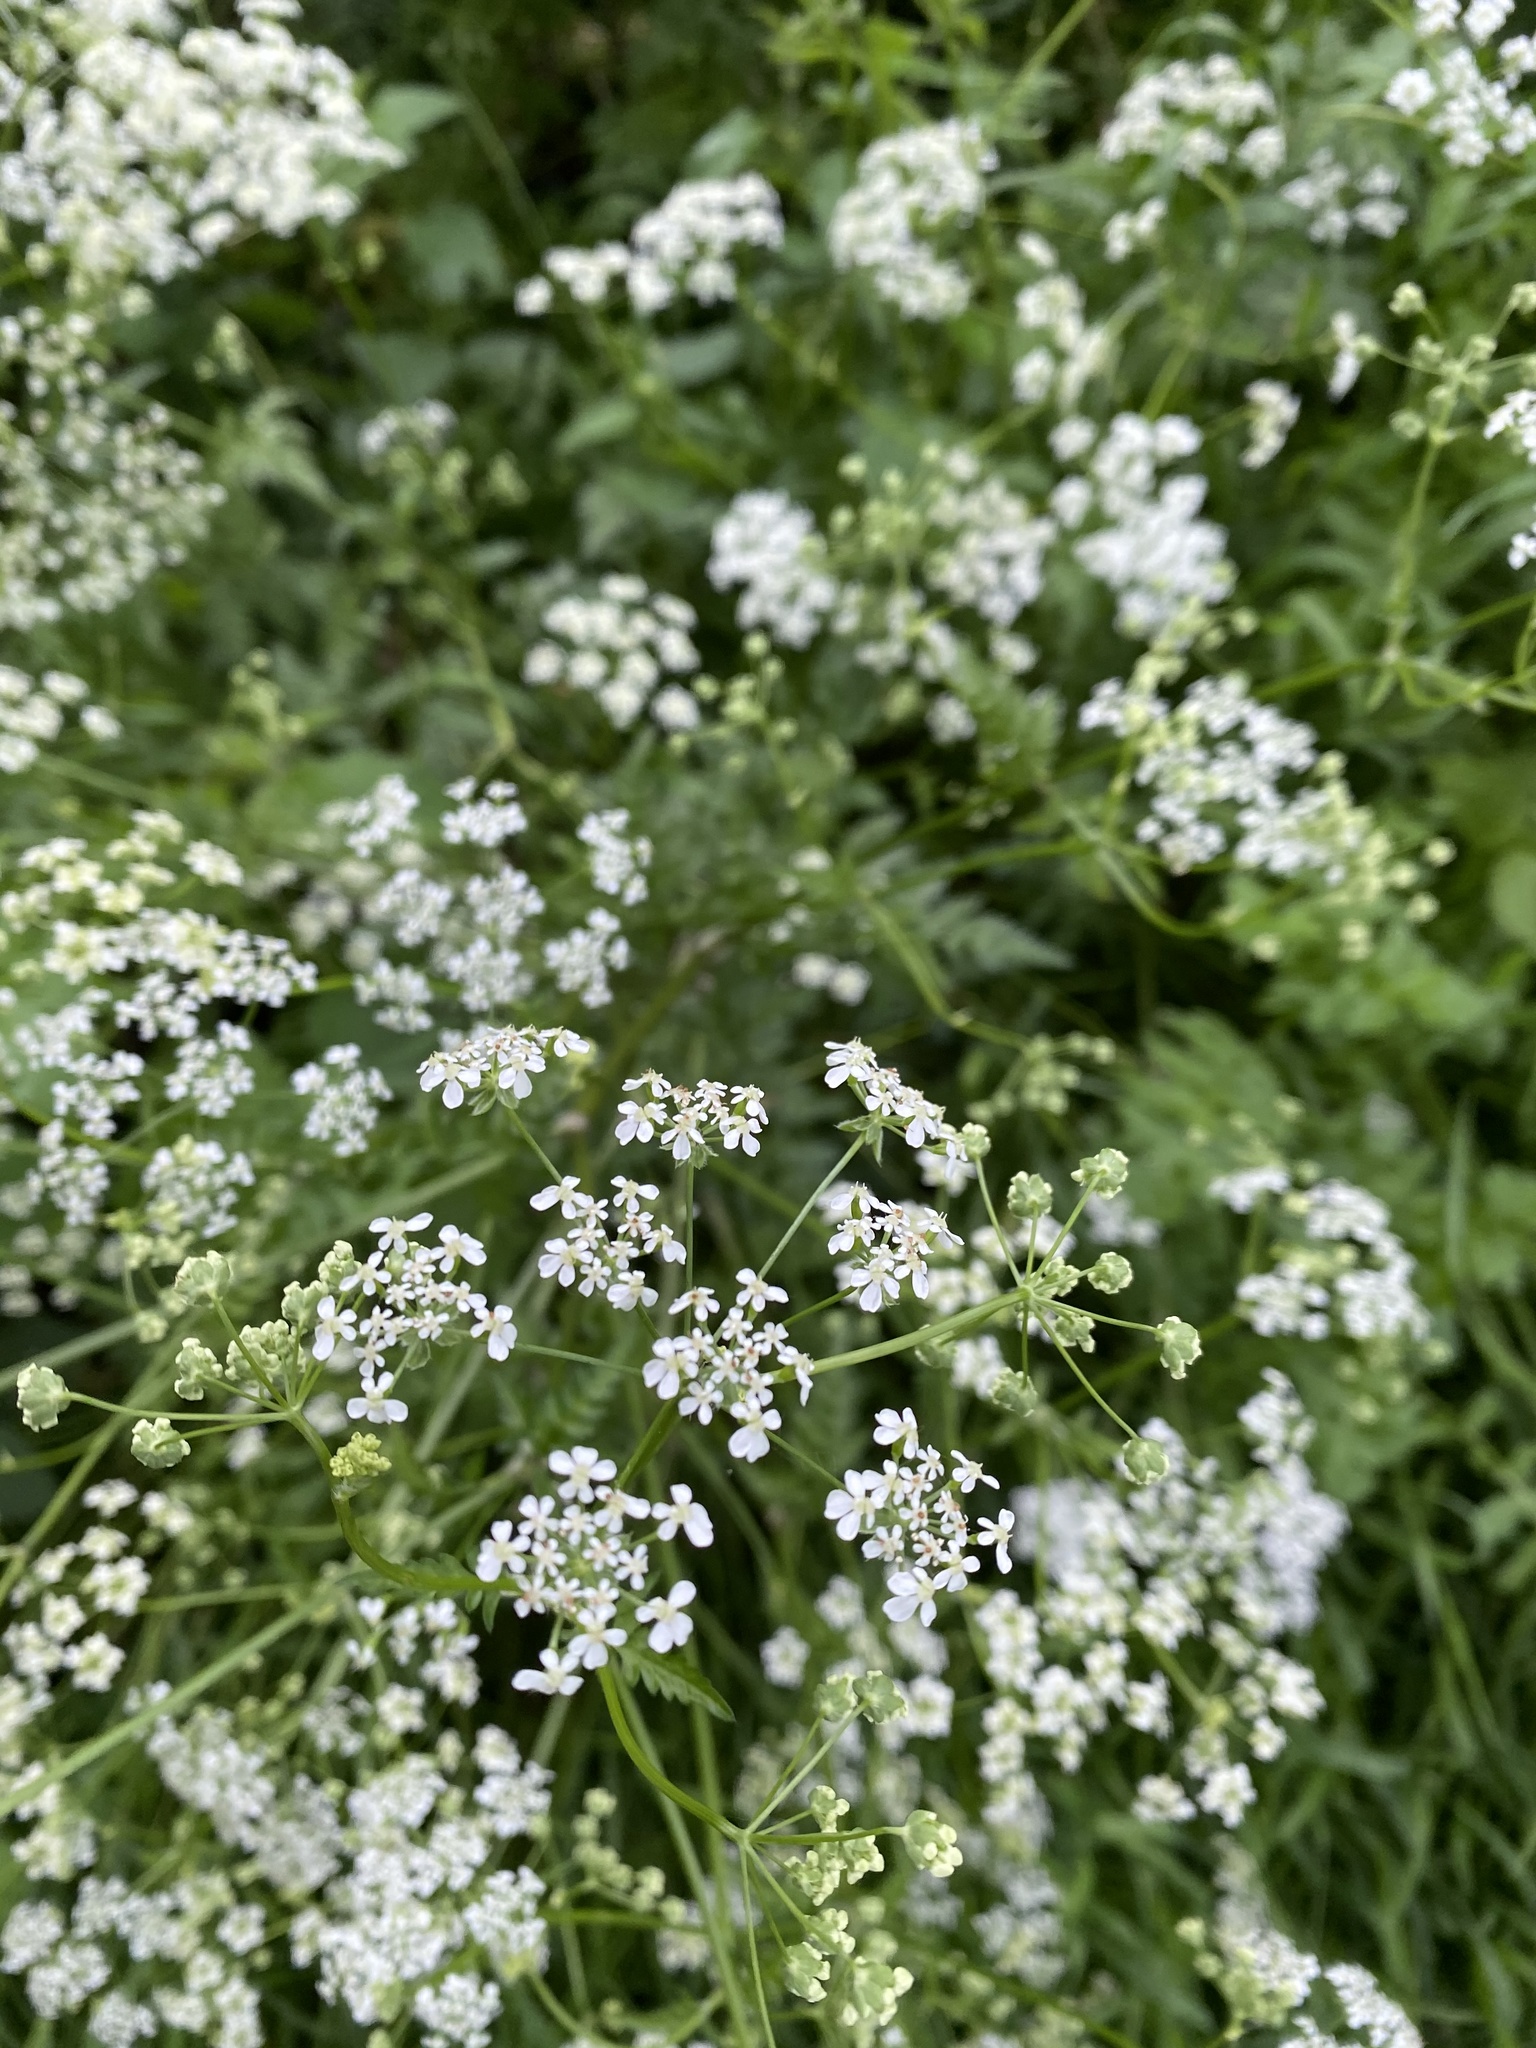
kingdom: Plantae
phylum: Tracheophyta
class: Magnoliopsida
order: Apiales
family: Apiaceae
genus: Anthriscus
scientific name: Anthriscus sylvestris
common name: Cow parsley
